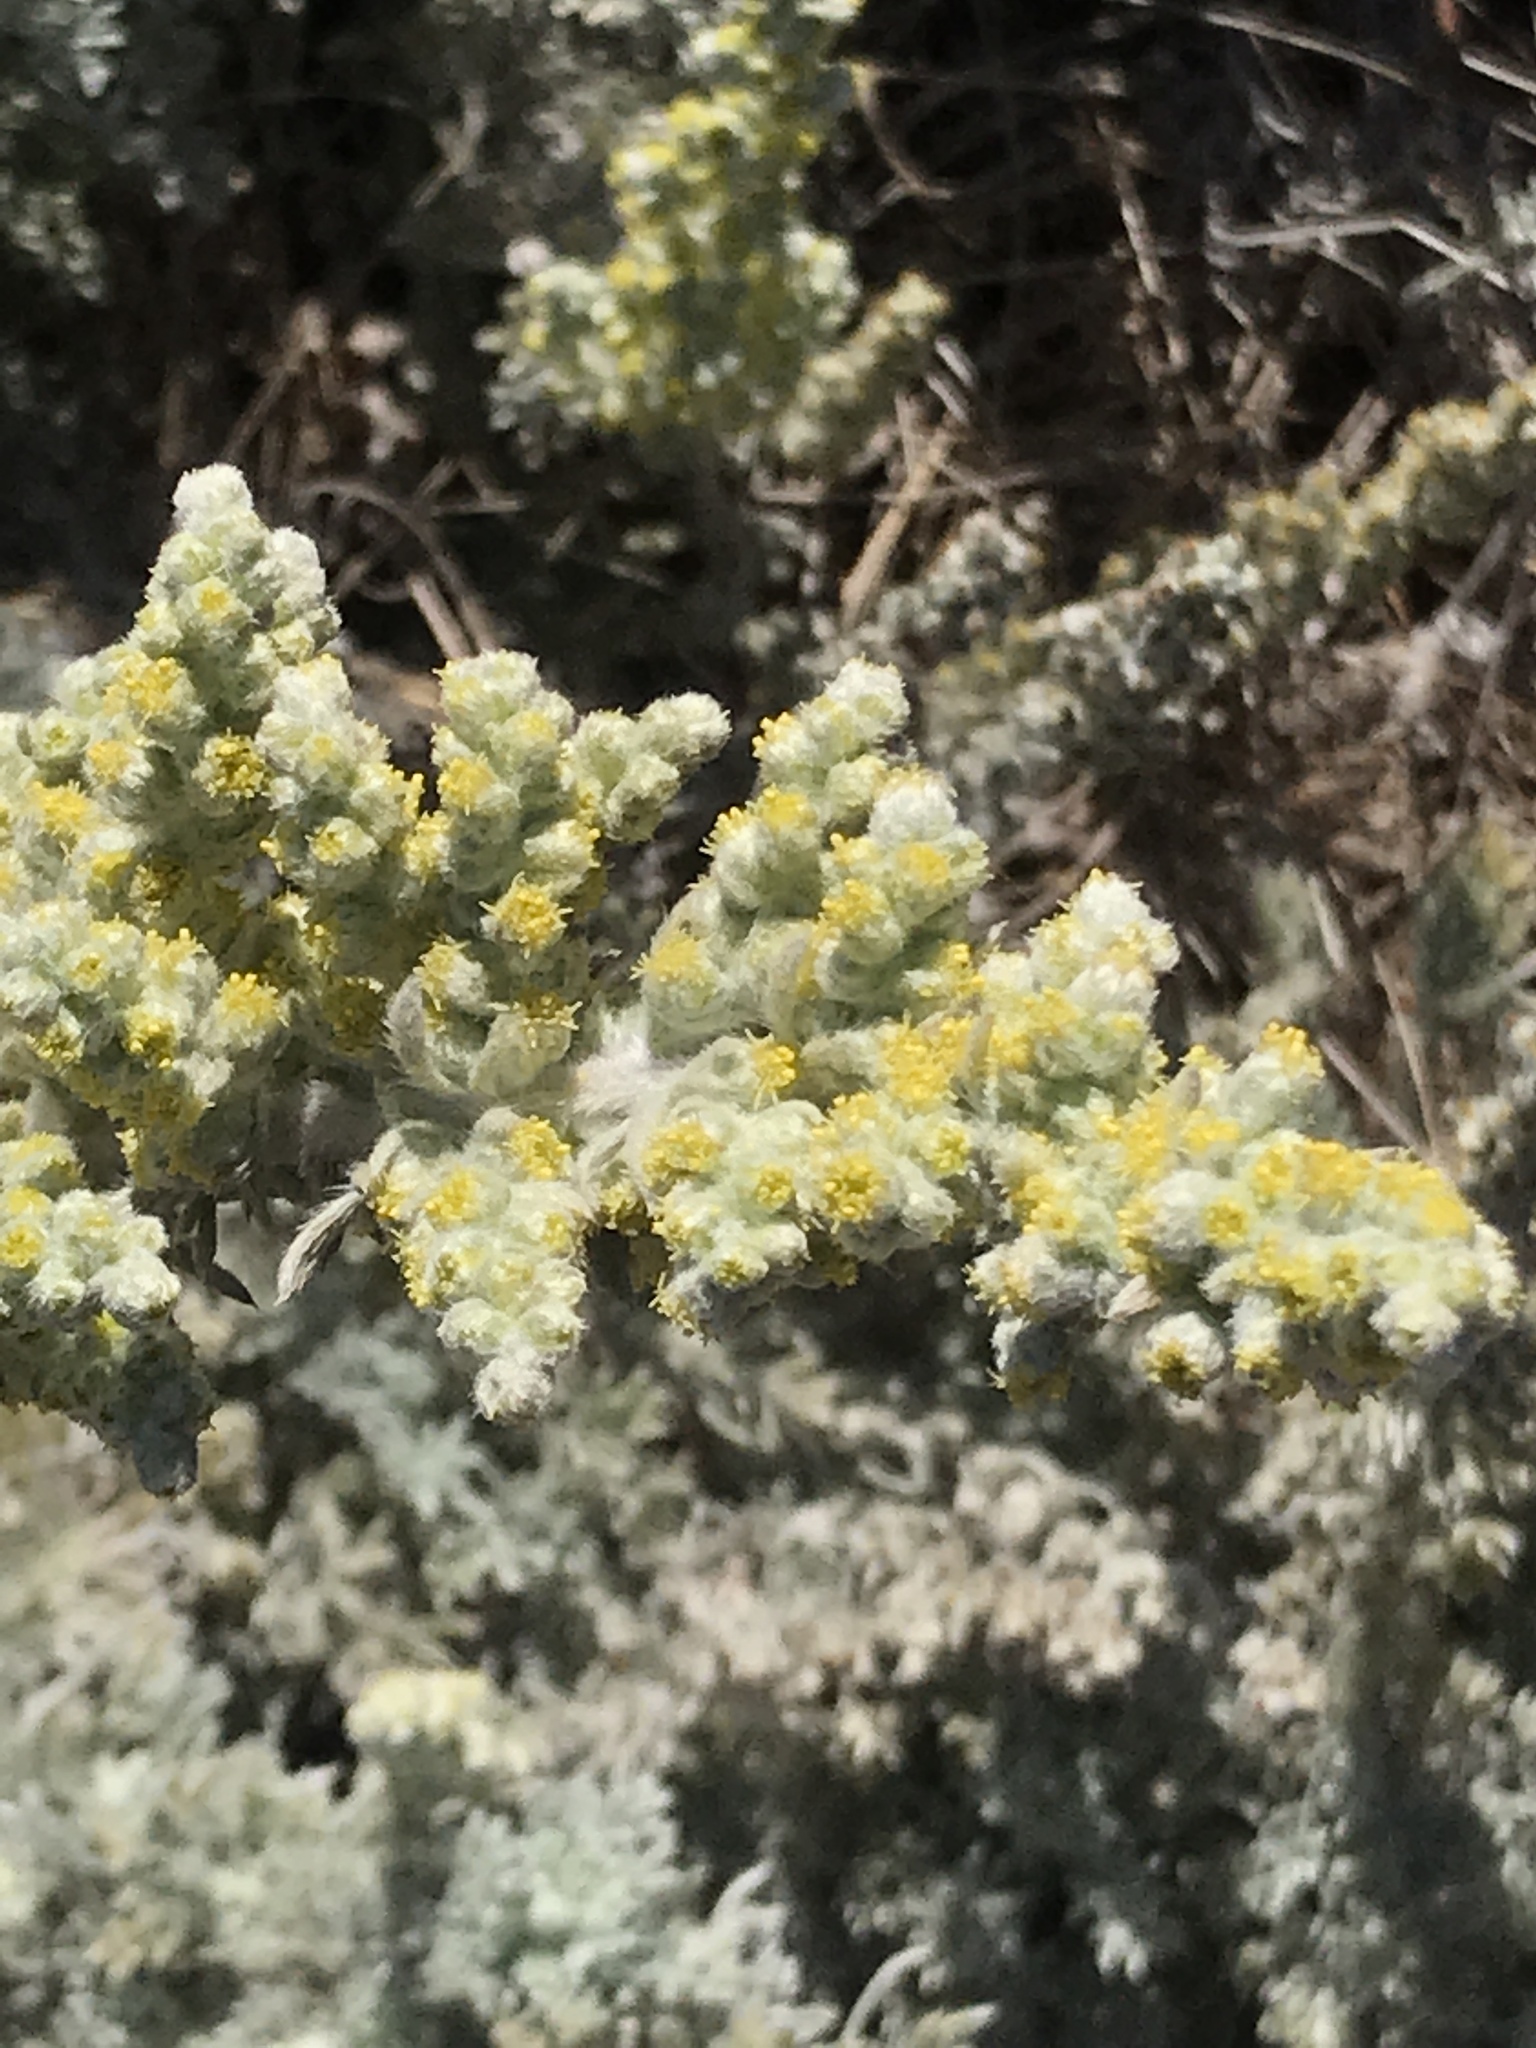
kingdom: Plantae
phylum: Tracheophyta
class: Magnoliopsida
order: Asterales
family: Asteraceae
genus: Artemisia
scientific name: Artemisia pycnocephala
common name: Coastal sagewort
